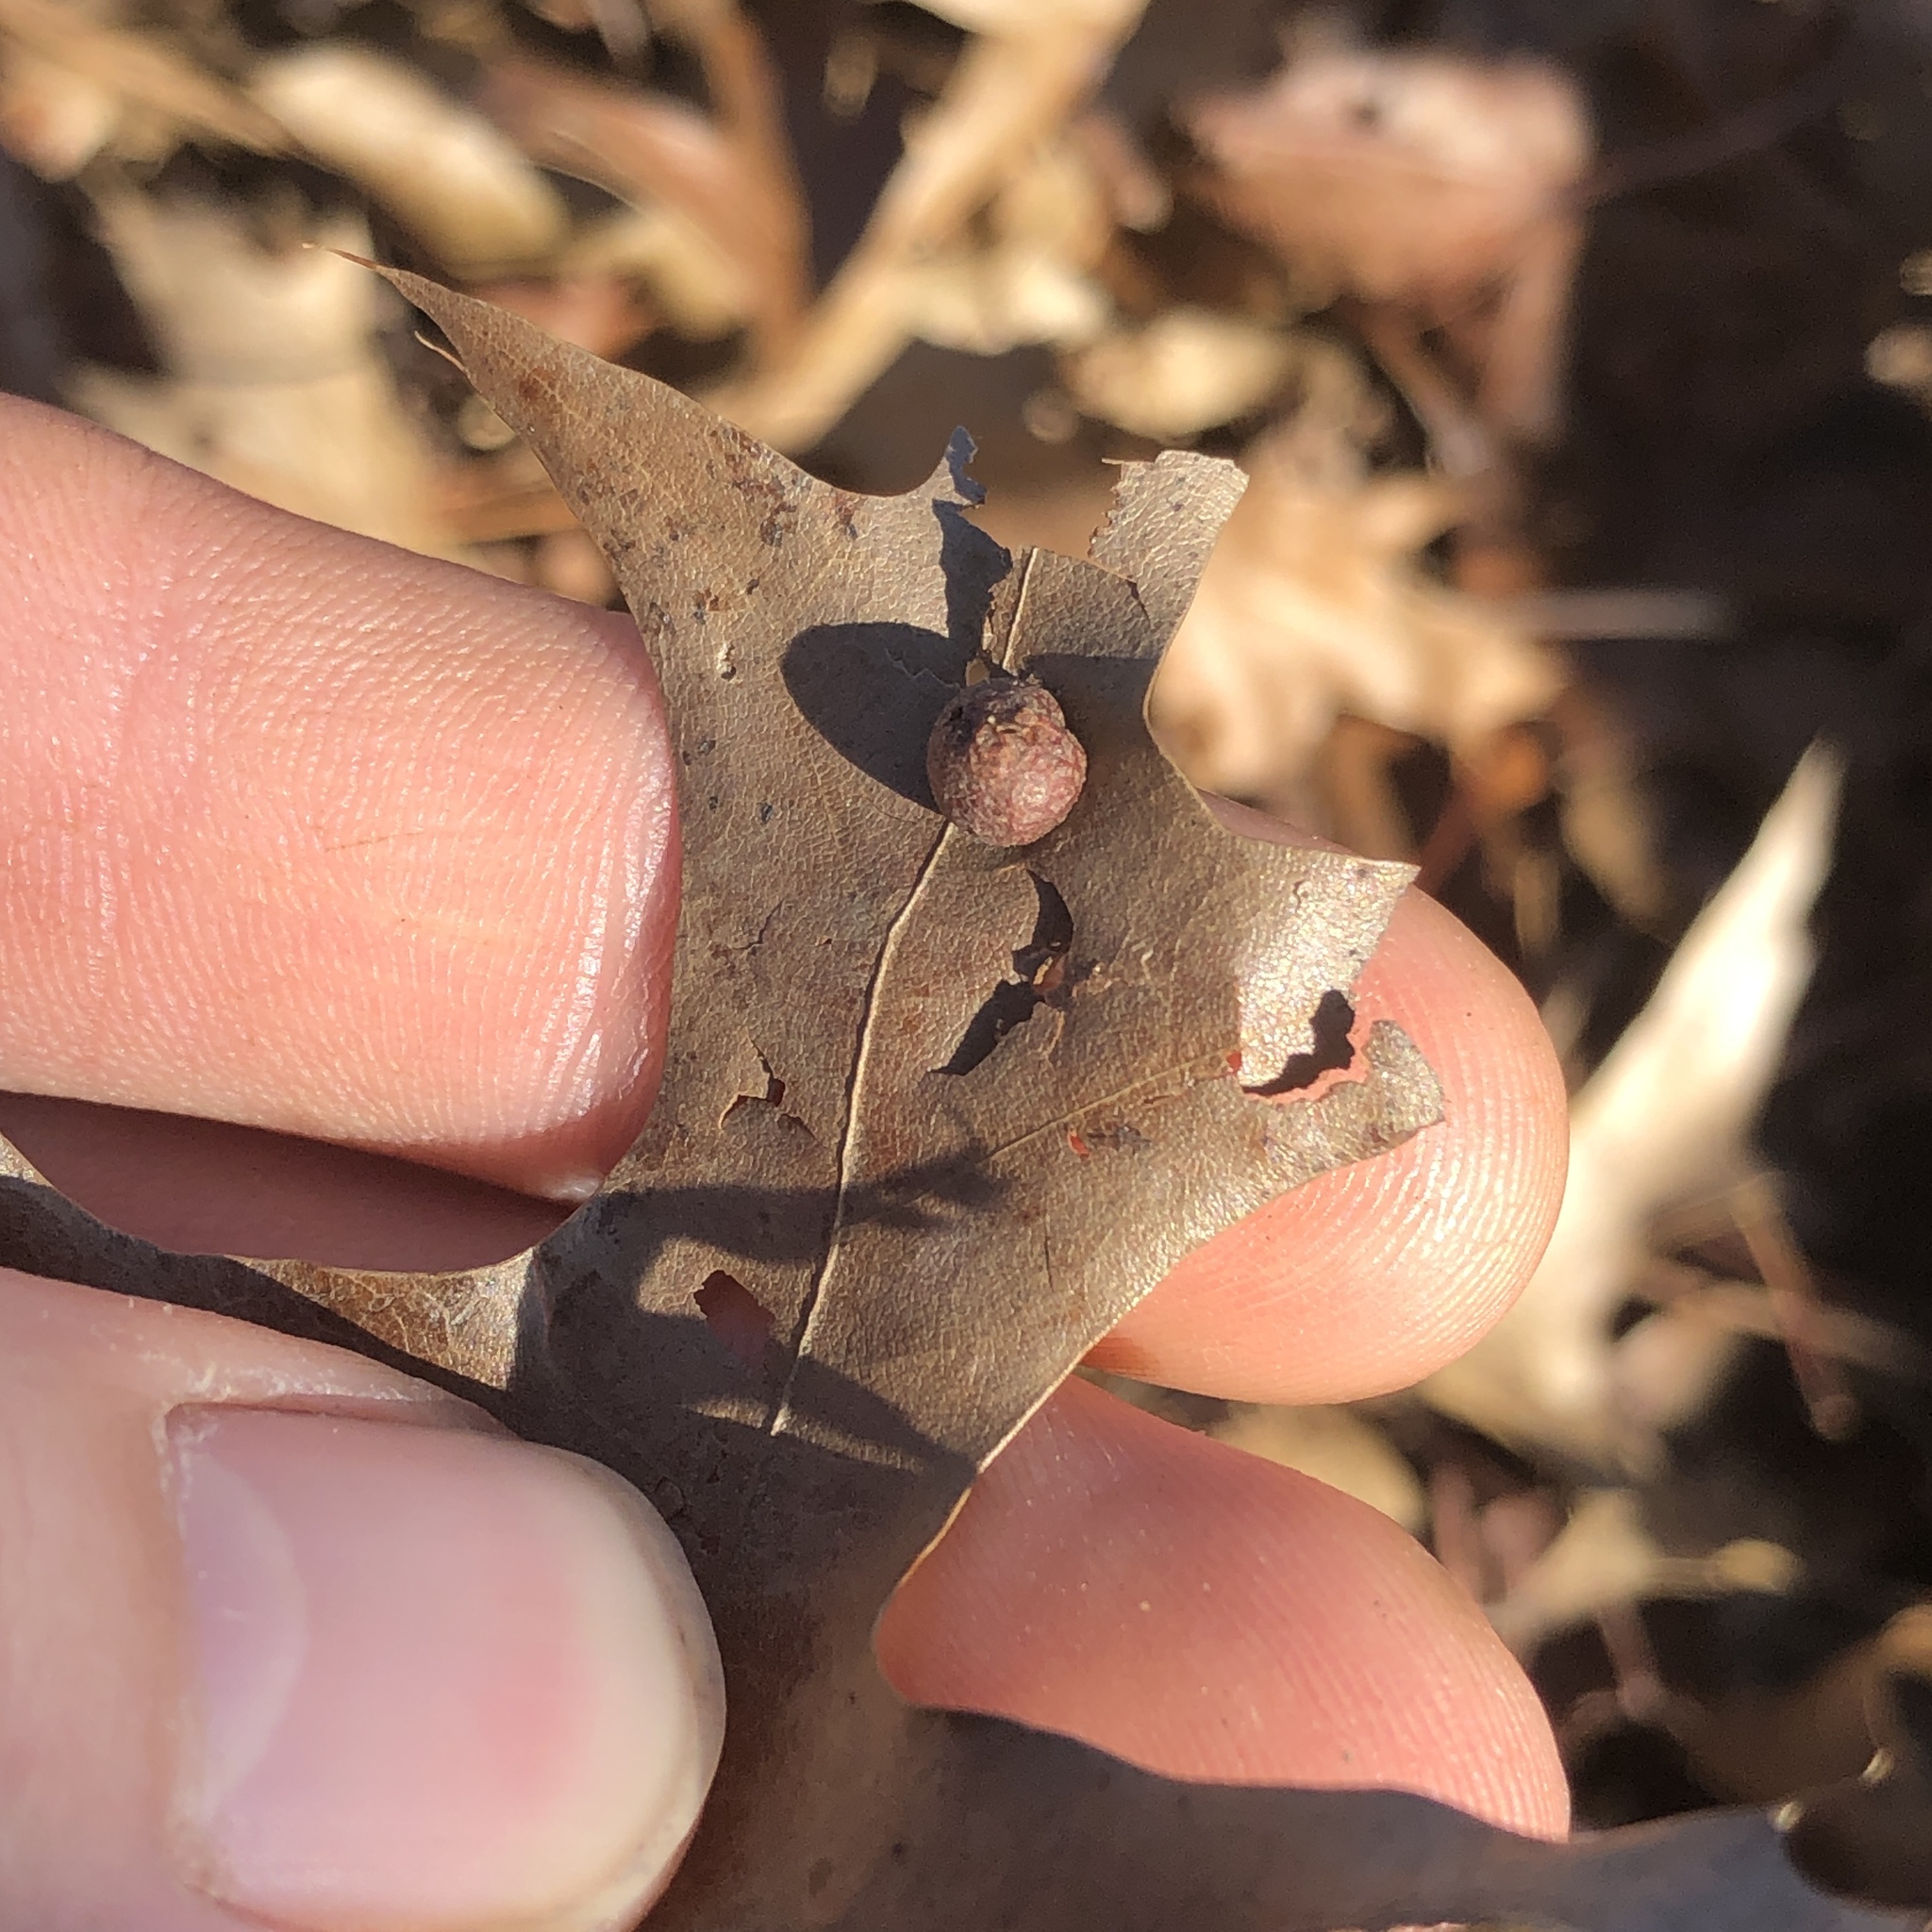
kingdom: Animalia
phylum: Arthropoda
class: Insecta
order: Diptera
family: Cecidomyiidae
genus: Polystepha
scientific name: Polystepha pilulae
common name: Oak leaf gall midge
